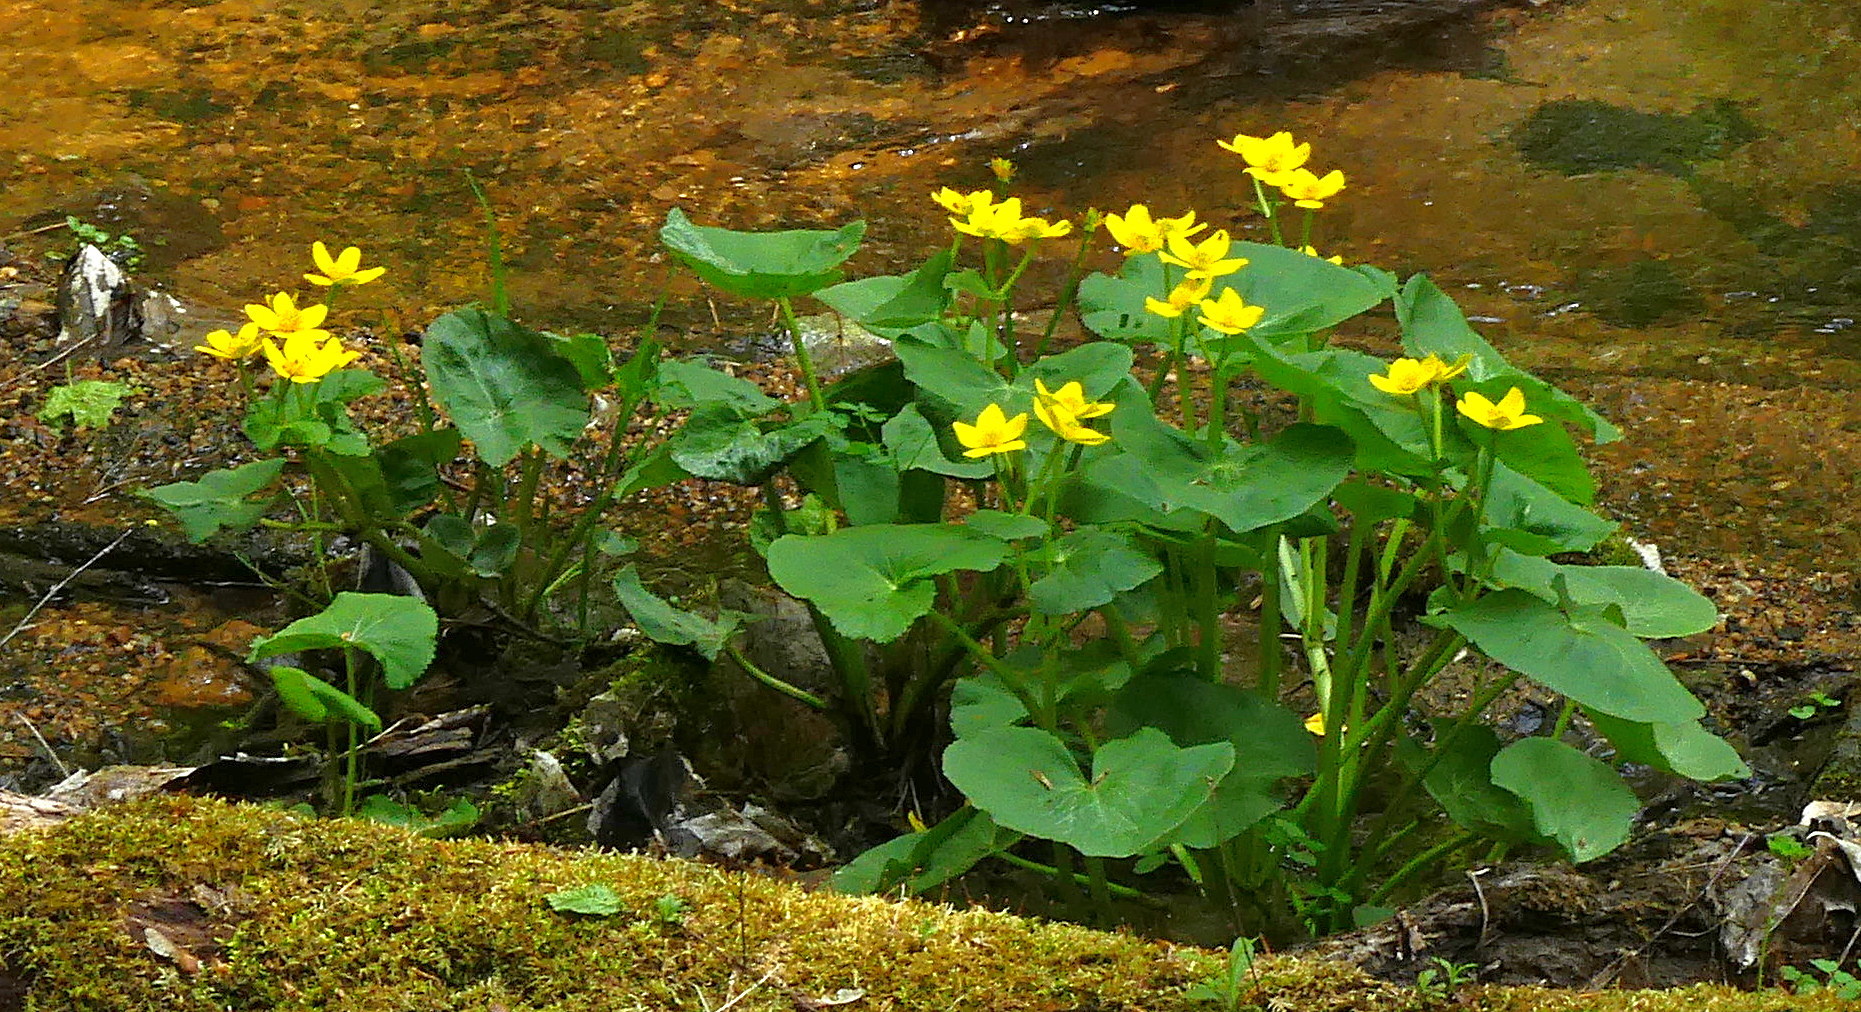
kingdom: Plantae
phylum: Tracheophyta
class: Magnoliopsida
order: Ranunculales
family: Ranunculaceae
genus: Caltha
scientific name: Caltha palustris
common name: Marsh marigold
